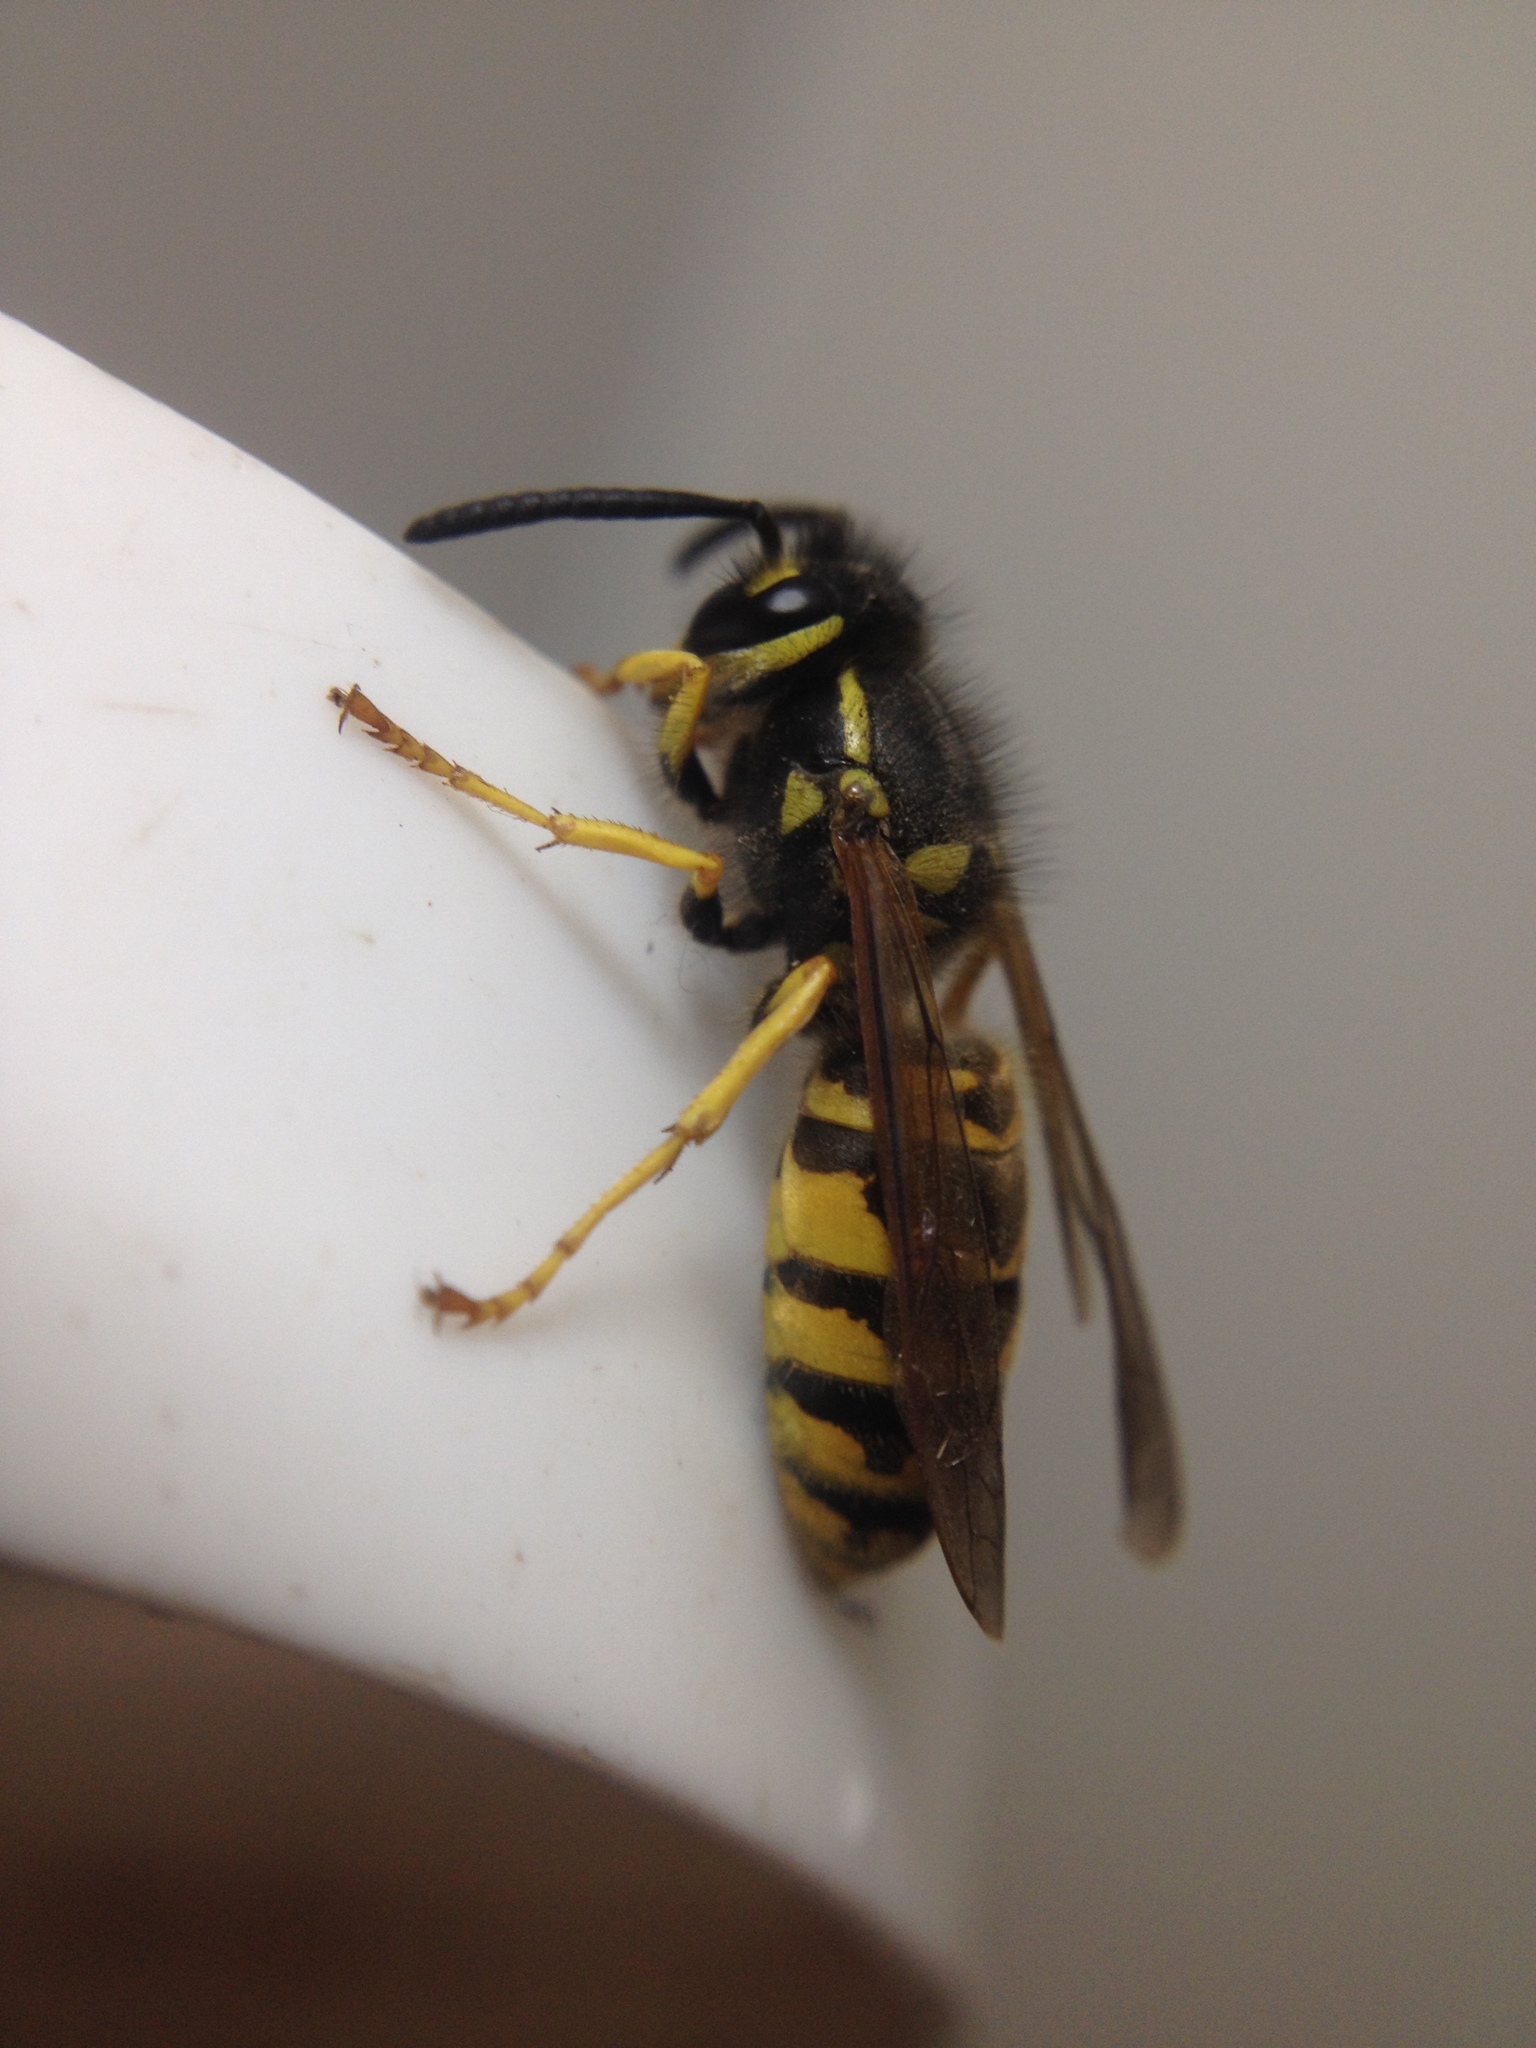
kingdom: Animalia
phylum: Arthropoda
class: Insecta
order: Hymenoptera
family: Vespidae
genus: Vespula
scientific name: Vespula germanica
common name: German wasp
